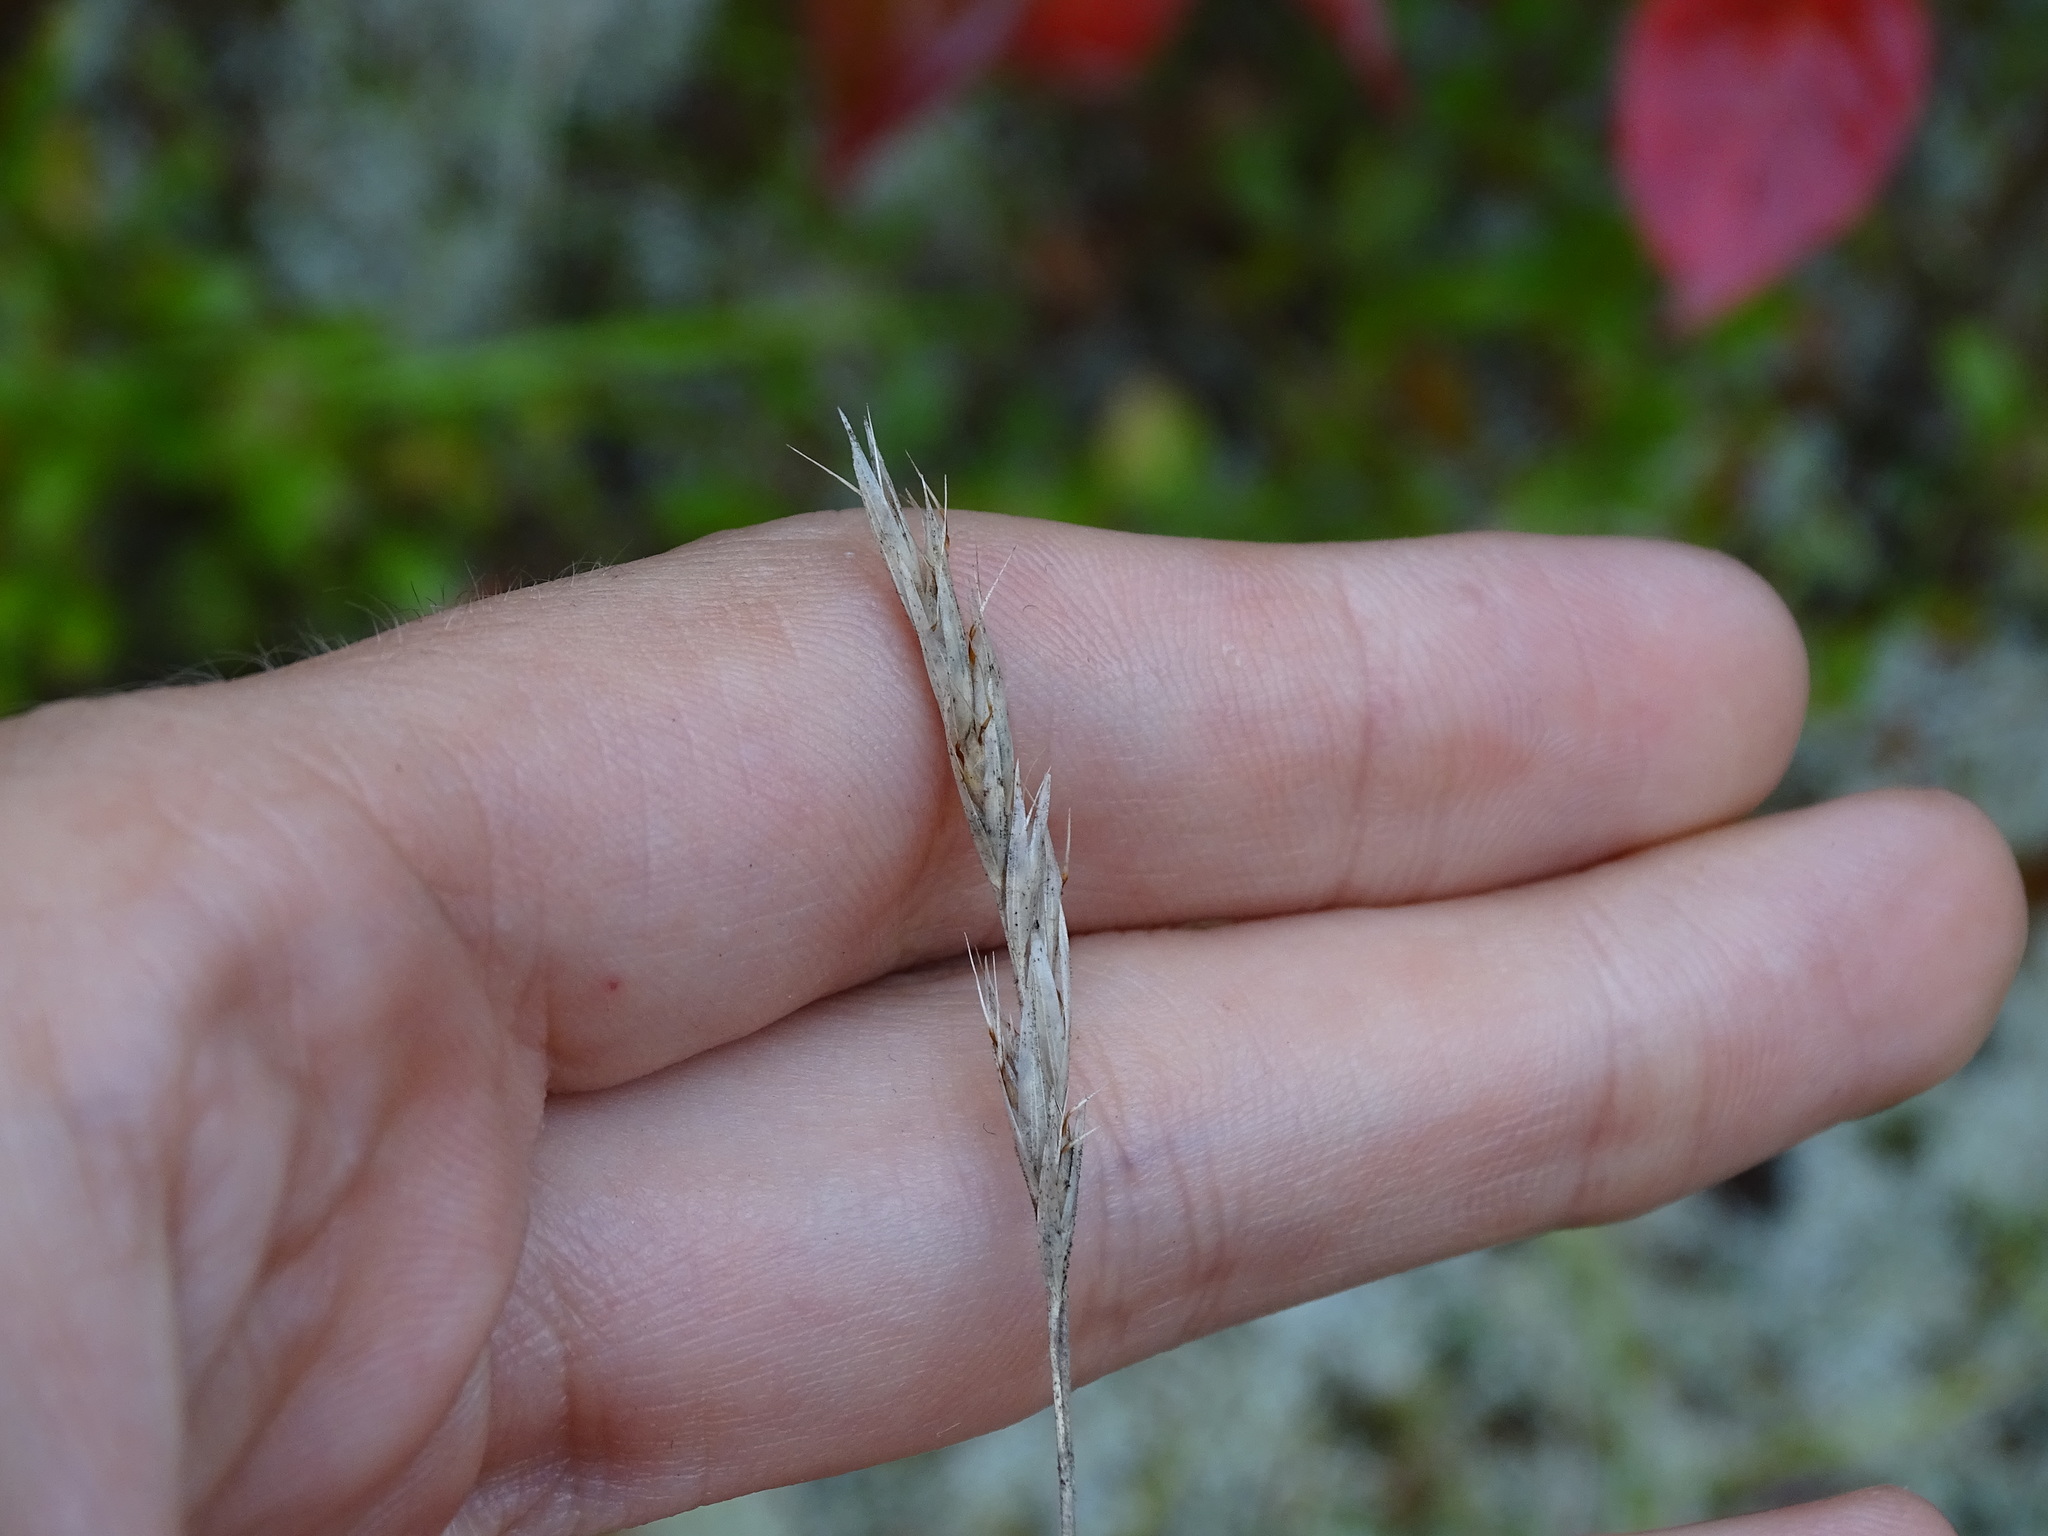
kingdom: Plantae
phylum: Tracheophyta
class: Liliopsida
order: Poales
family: Poaceae
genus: Danthonia
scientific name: Danthonia spicata
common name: Common wild oatgrass
